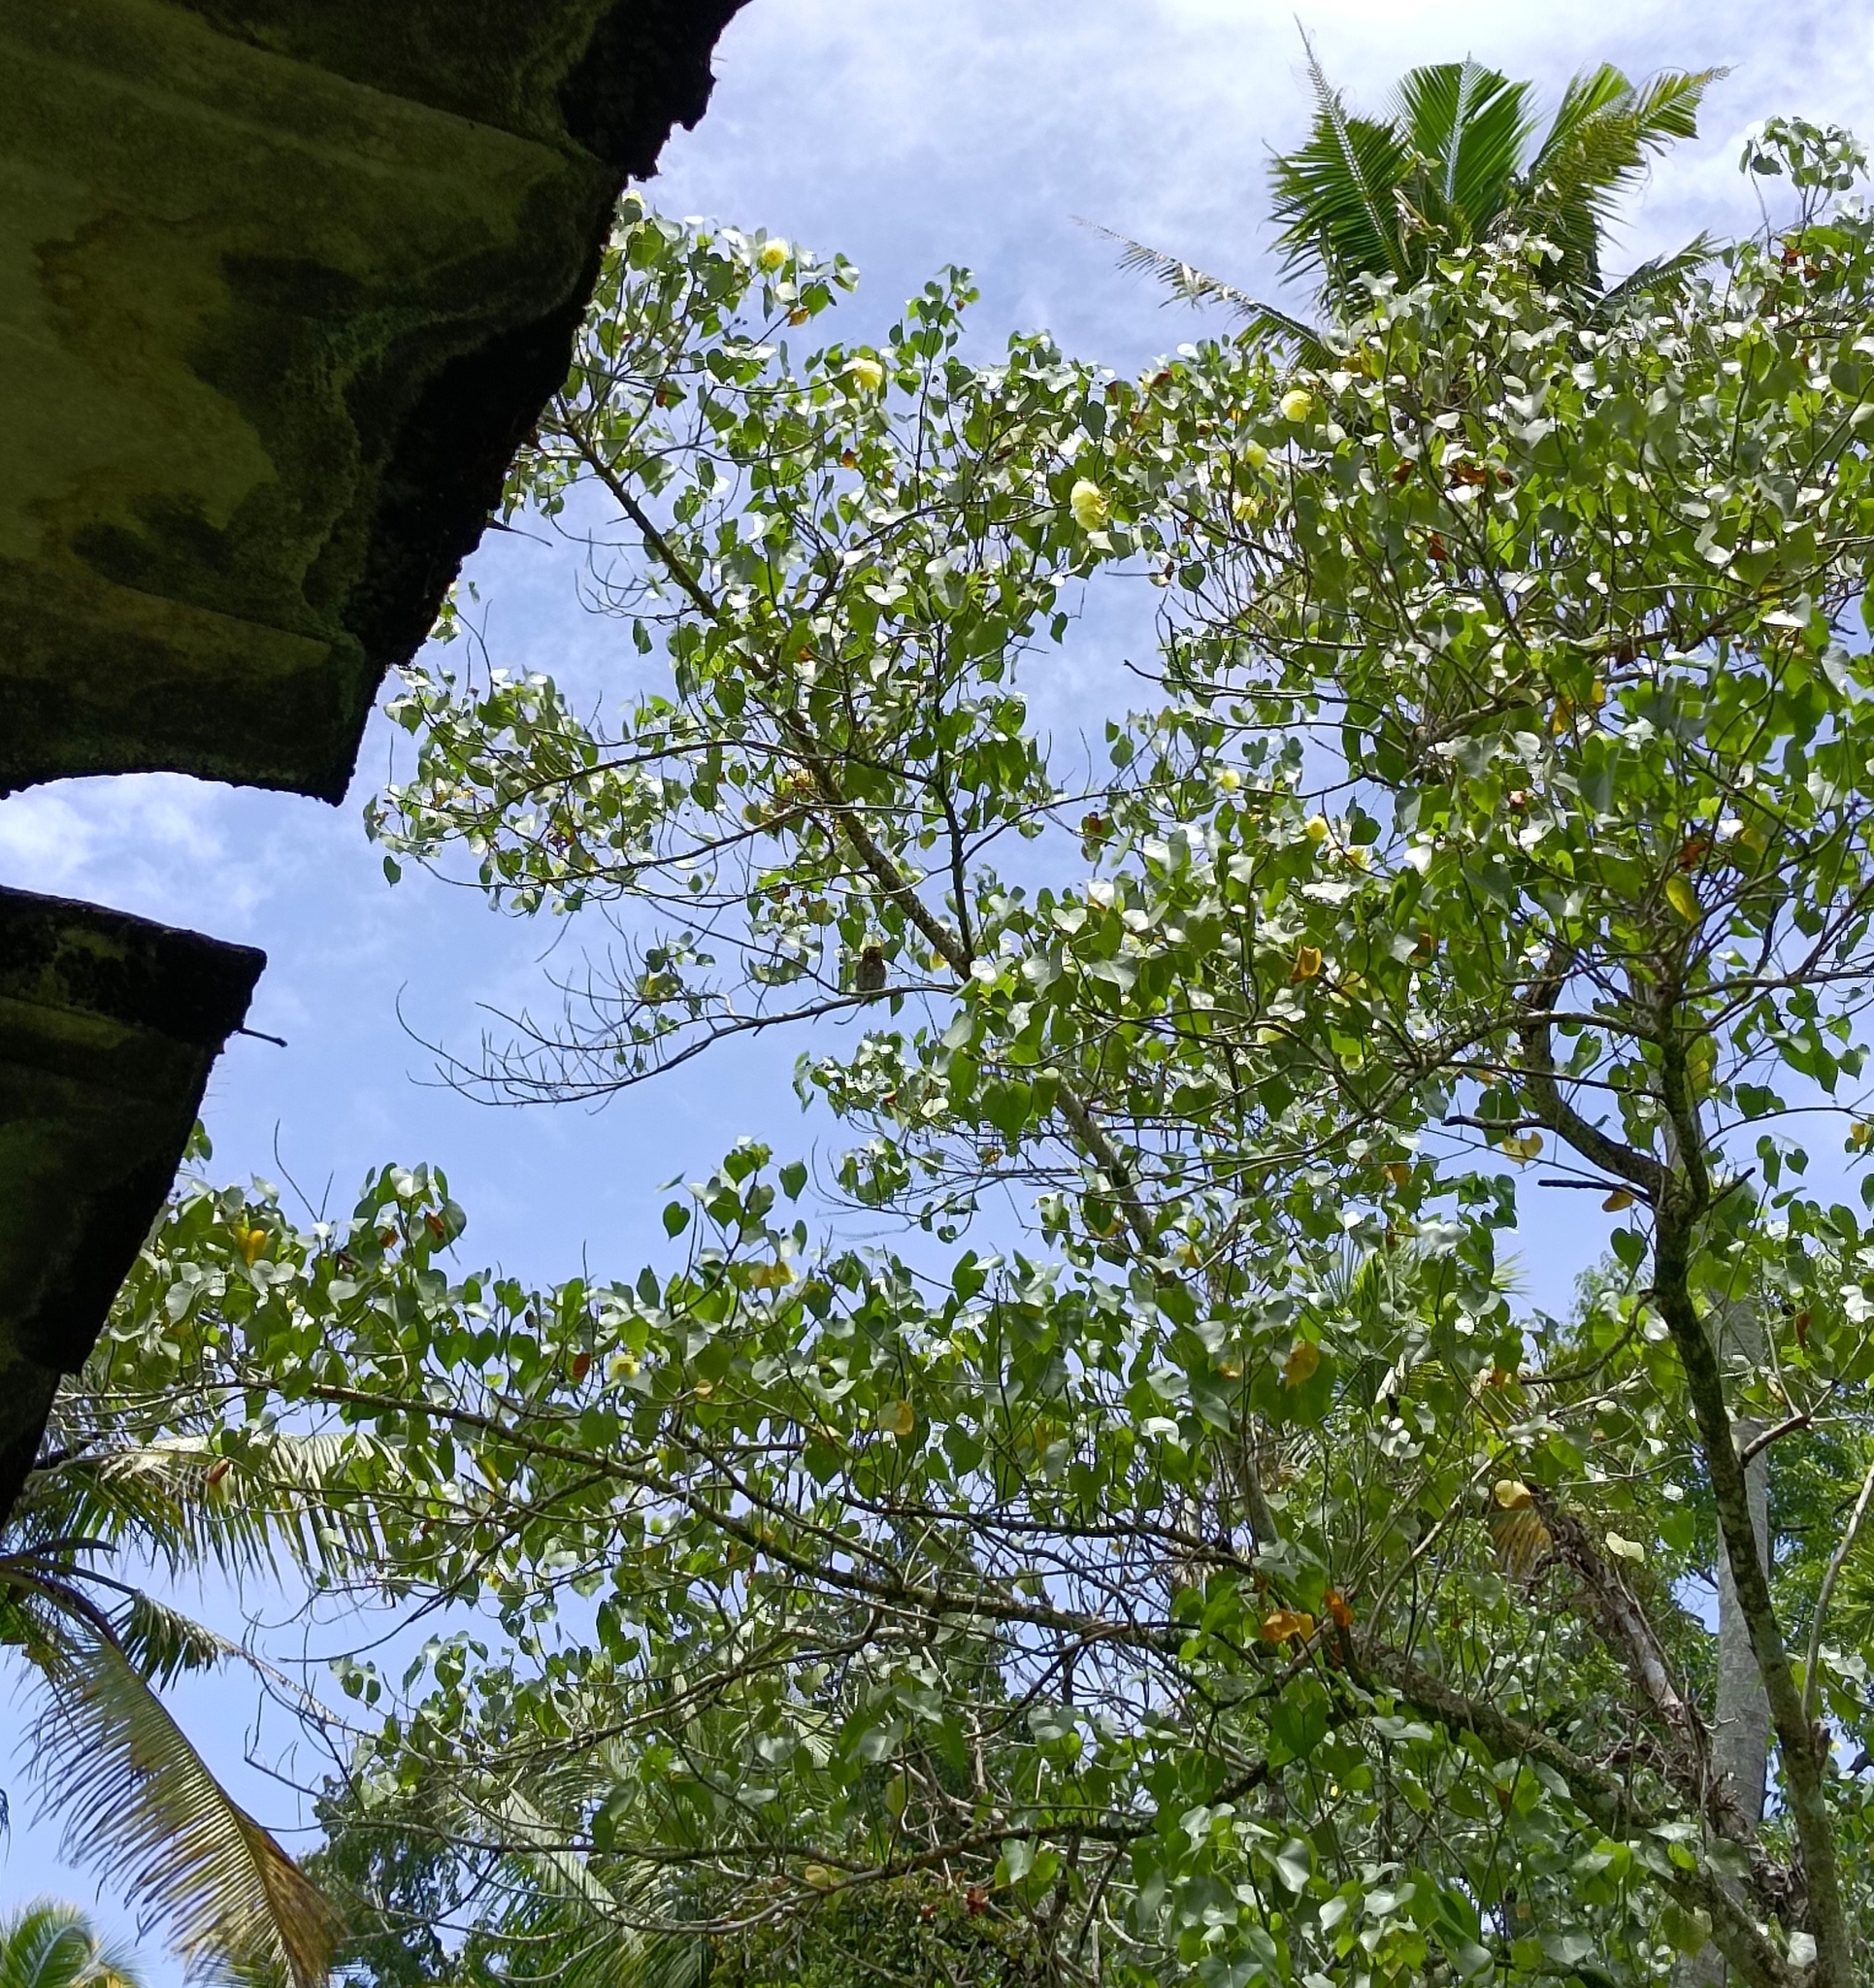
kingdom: Plantae
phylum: Tracheophyta
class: Magnoliopsida
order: Malvales
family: Malvaceae
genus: Thespesia
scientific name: Thespesia populnea
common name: Seaside mahoe
